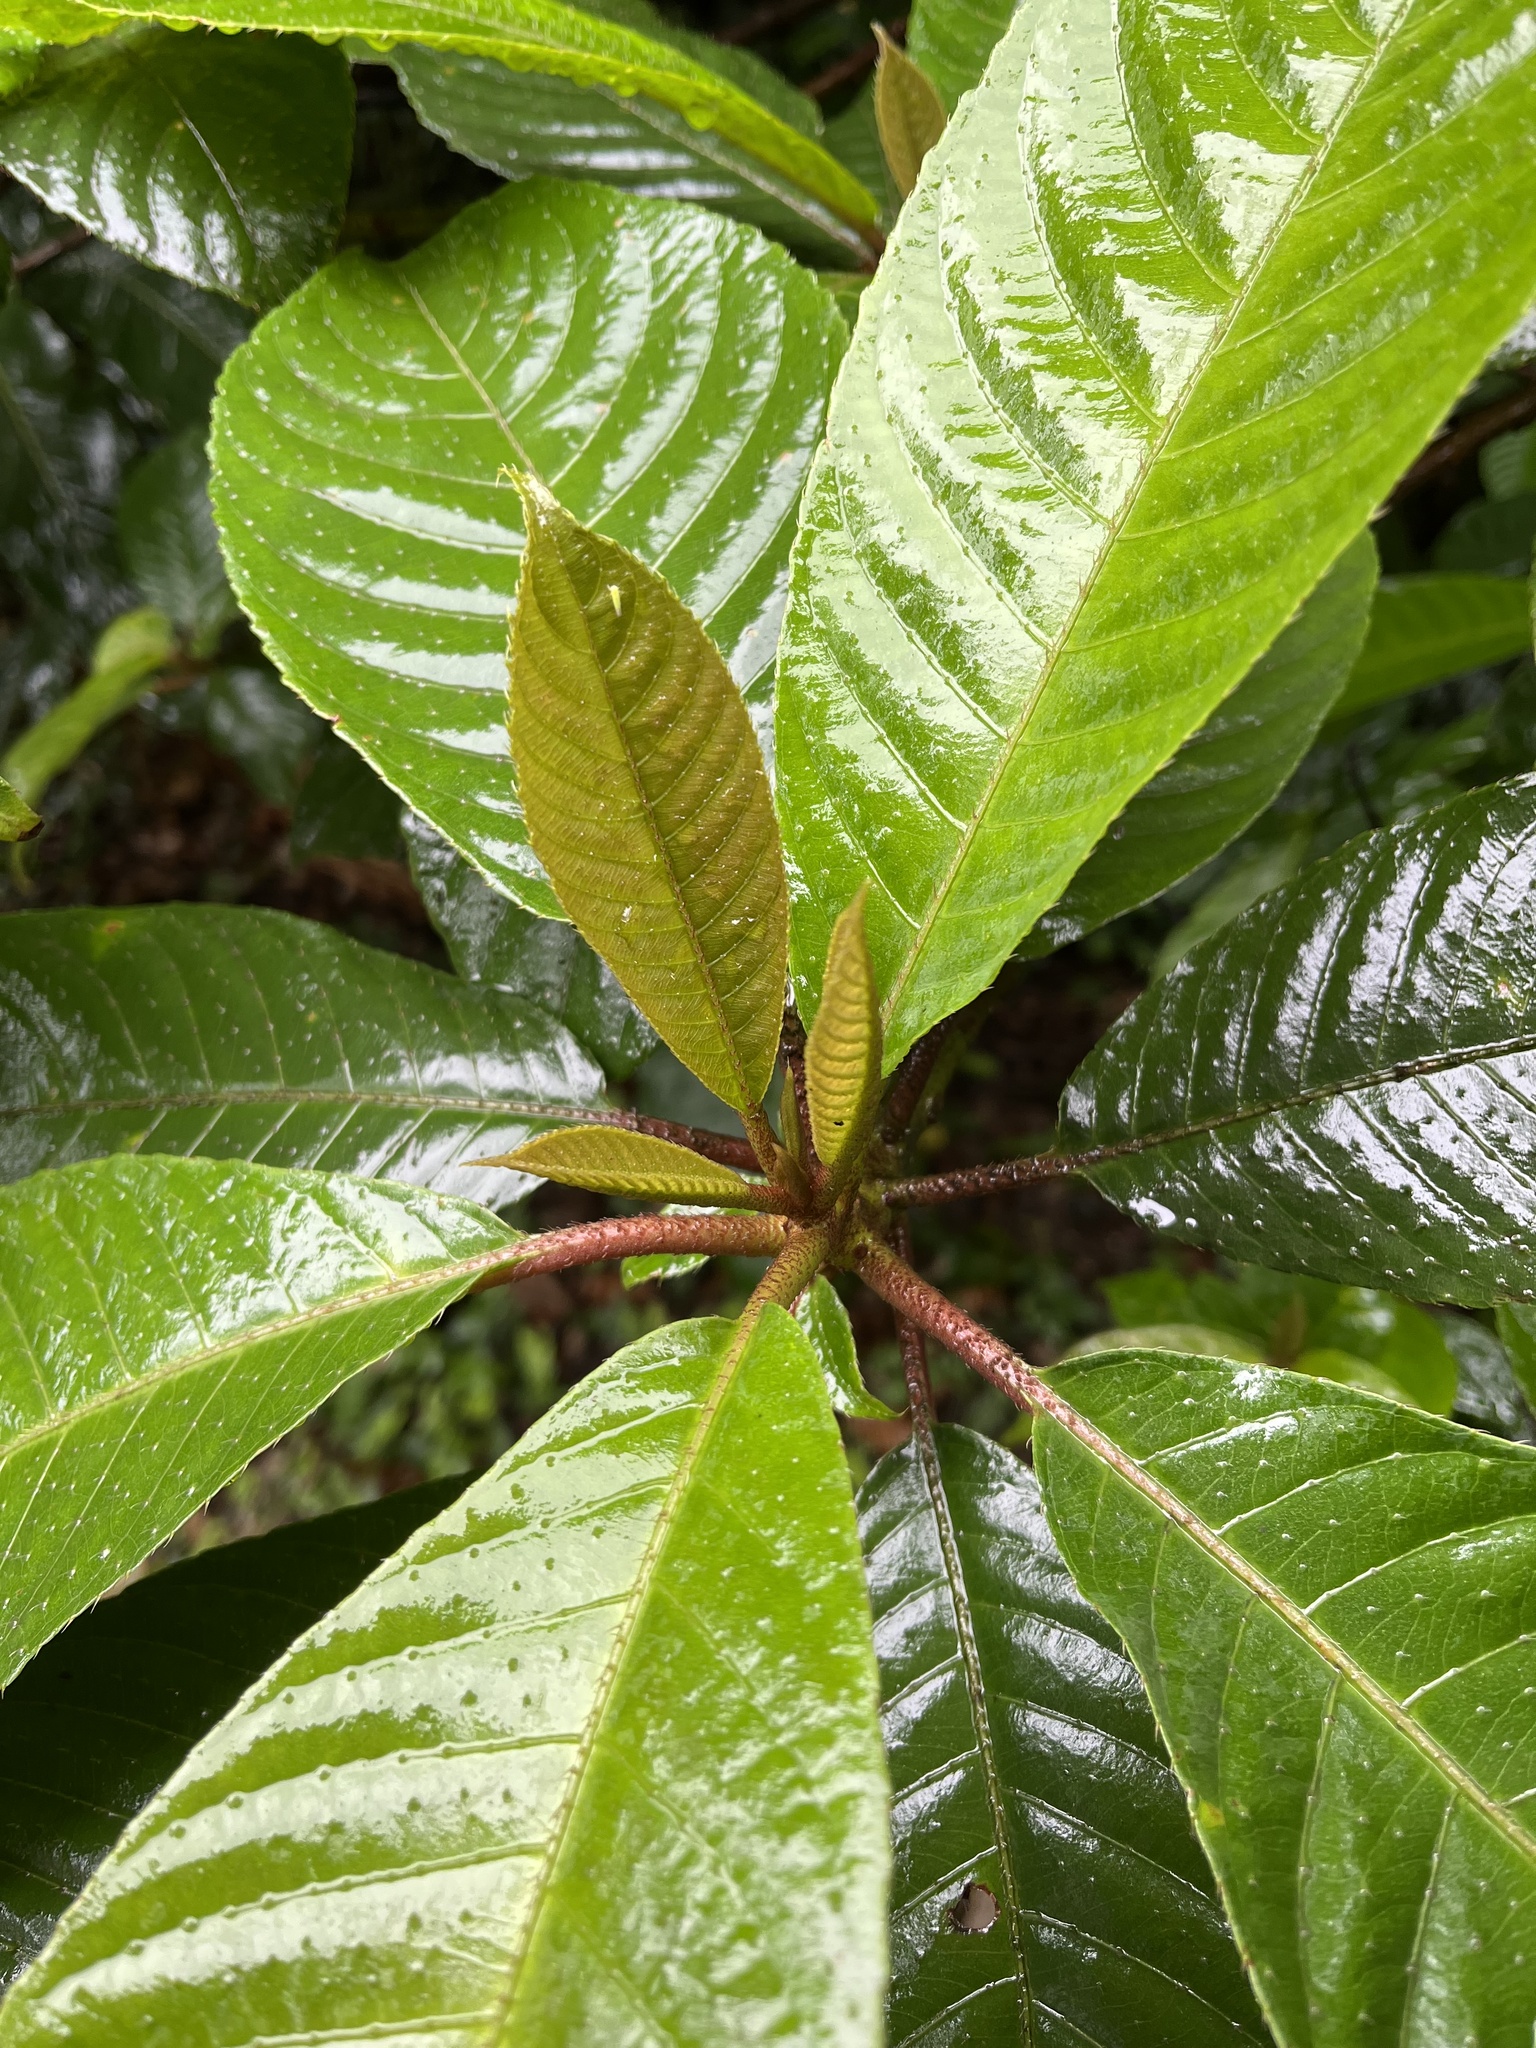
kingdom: Plantae
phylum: Tracheophyta
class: Magnoliopsida
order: Ericales
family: Actinidiaceae
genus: Saurauia
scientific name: Saurauia tristyla
